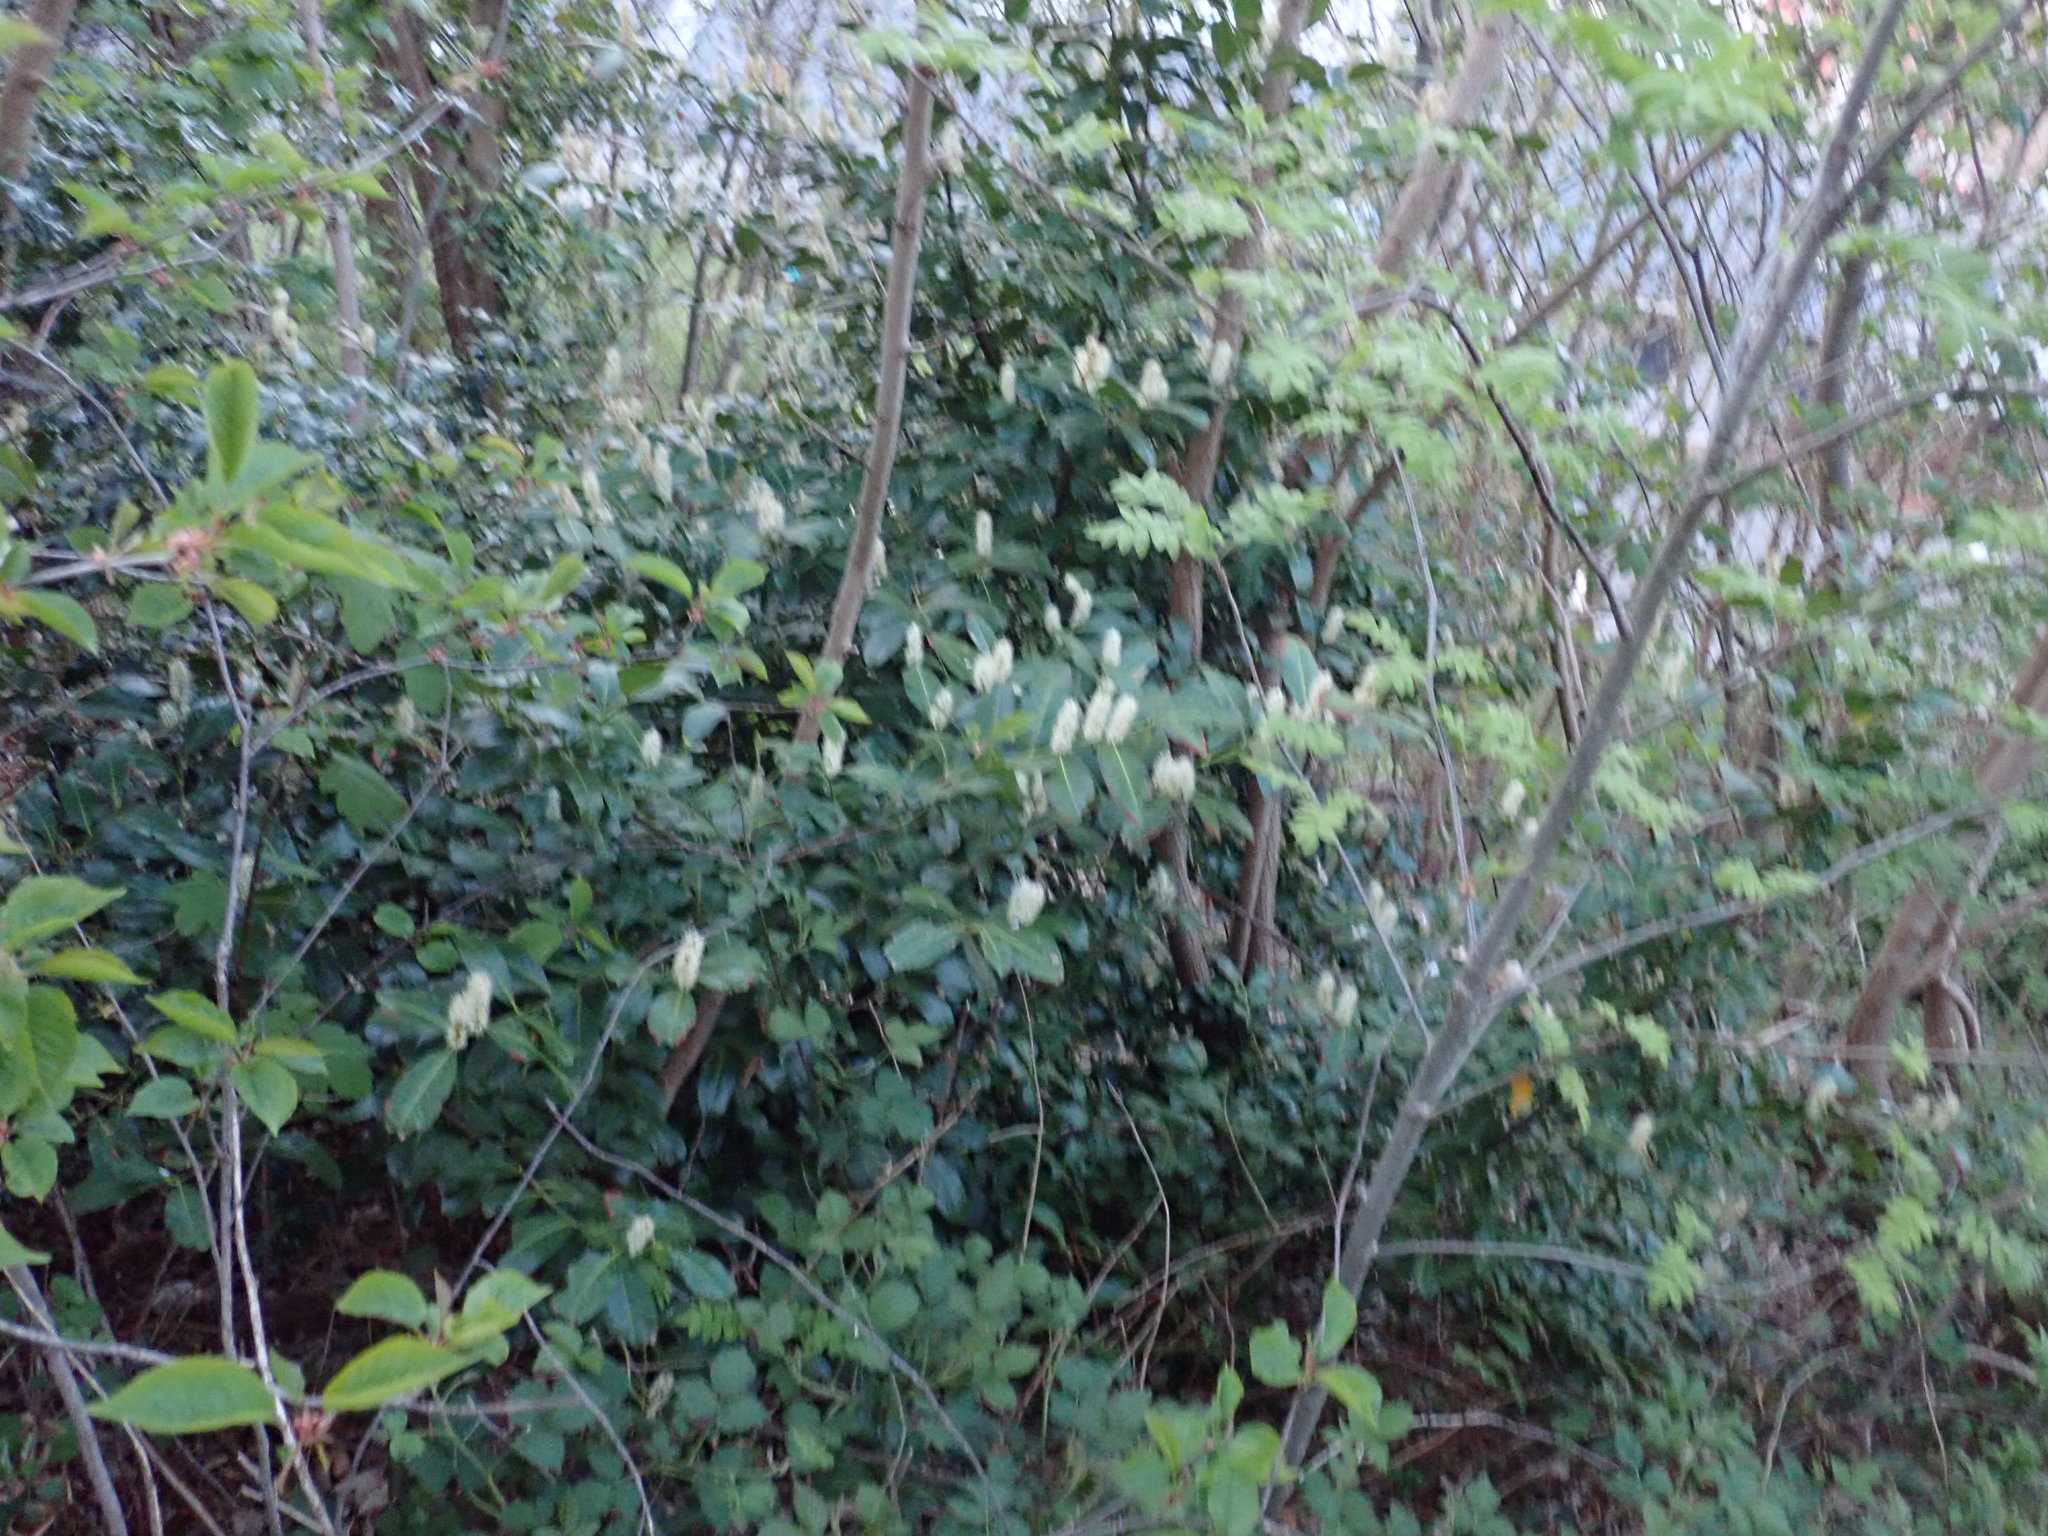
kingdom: Plantae
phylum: Tracheophyta
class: Magnoliopsida
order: Rosales
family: Rosaceae
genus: Prunus
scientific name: Prunus laurocerasus
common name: Cherry laurel
